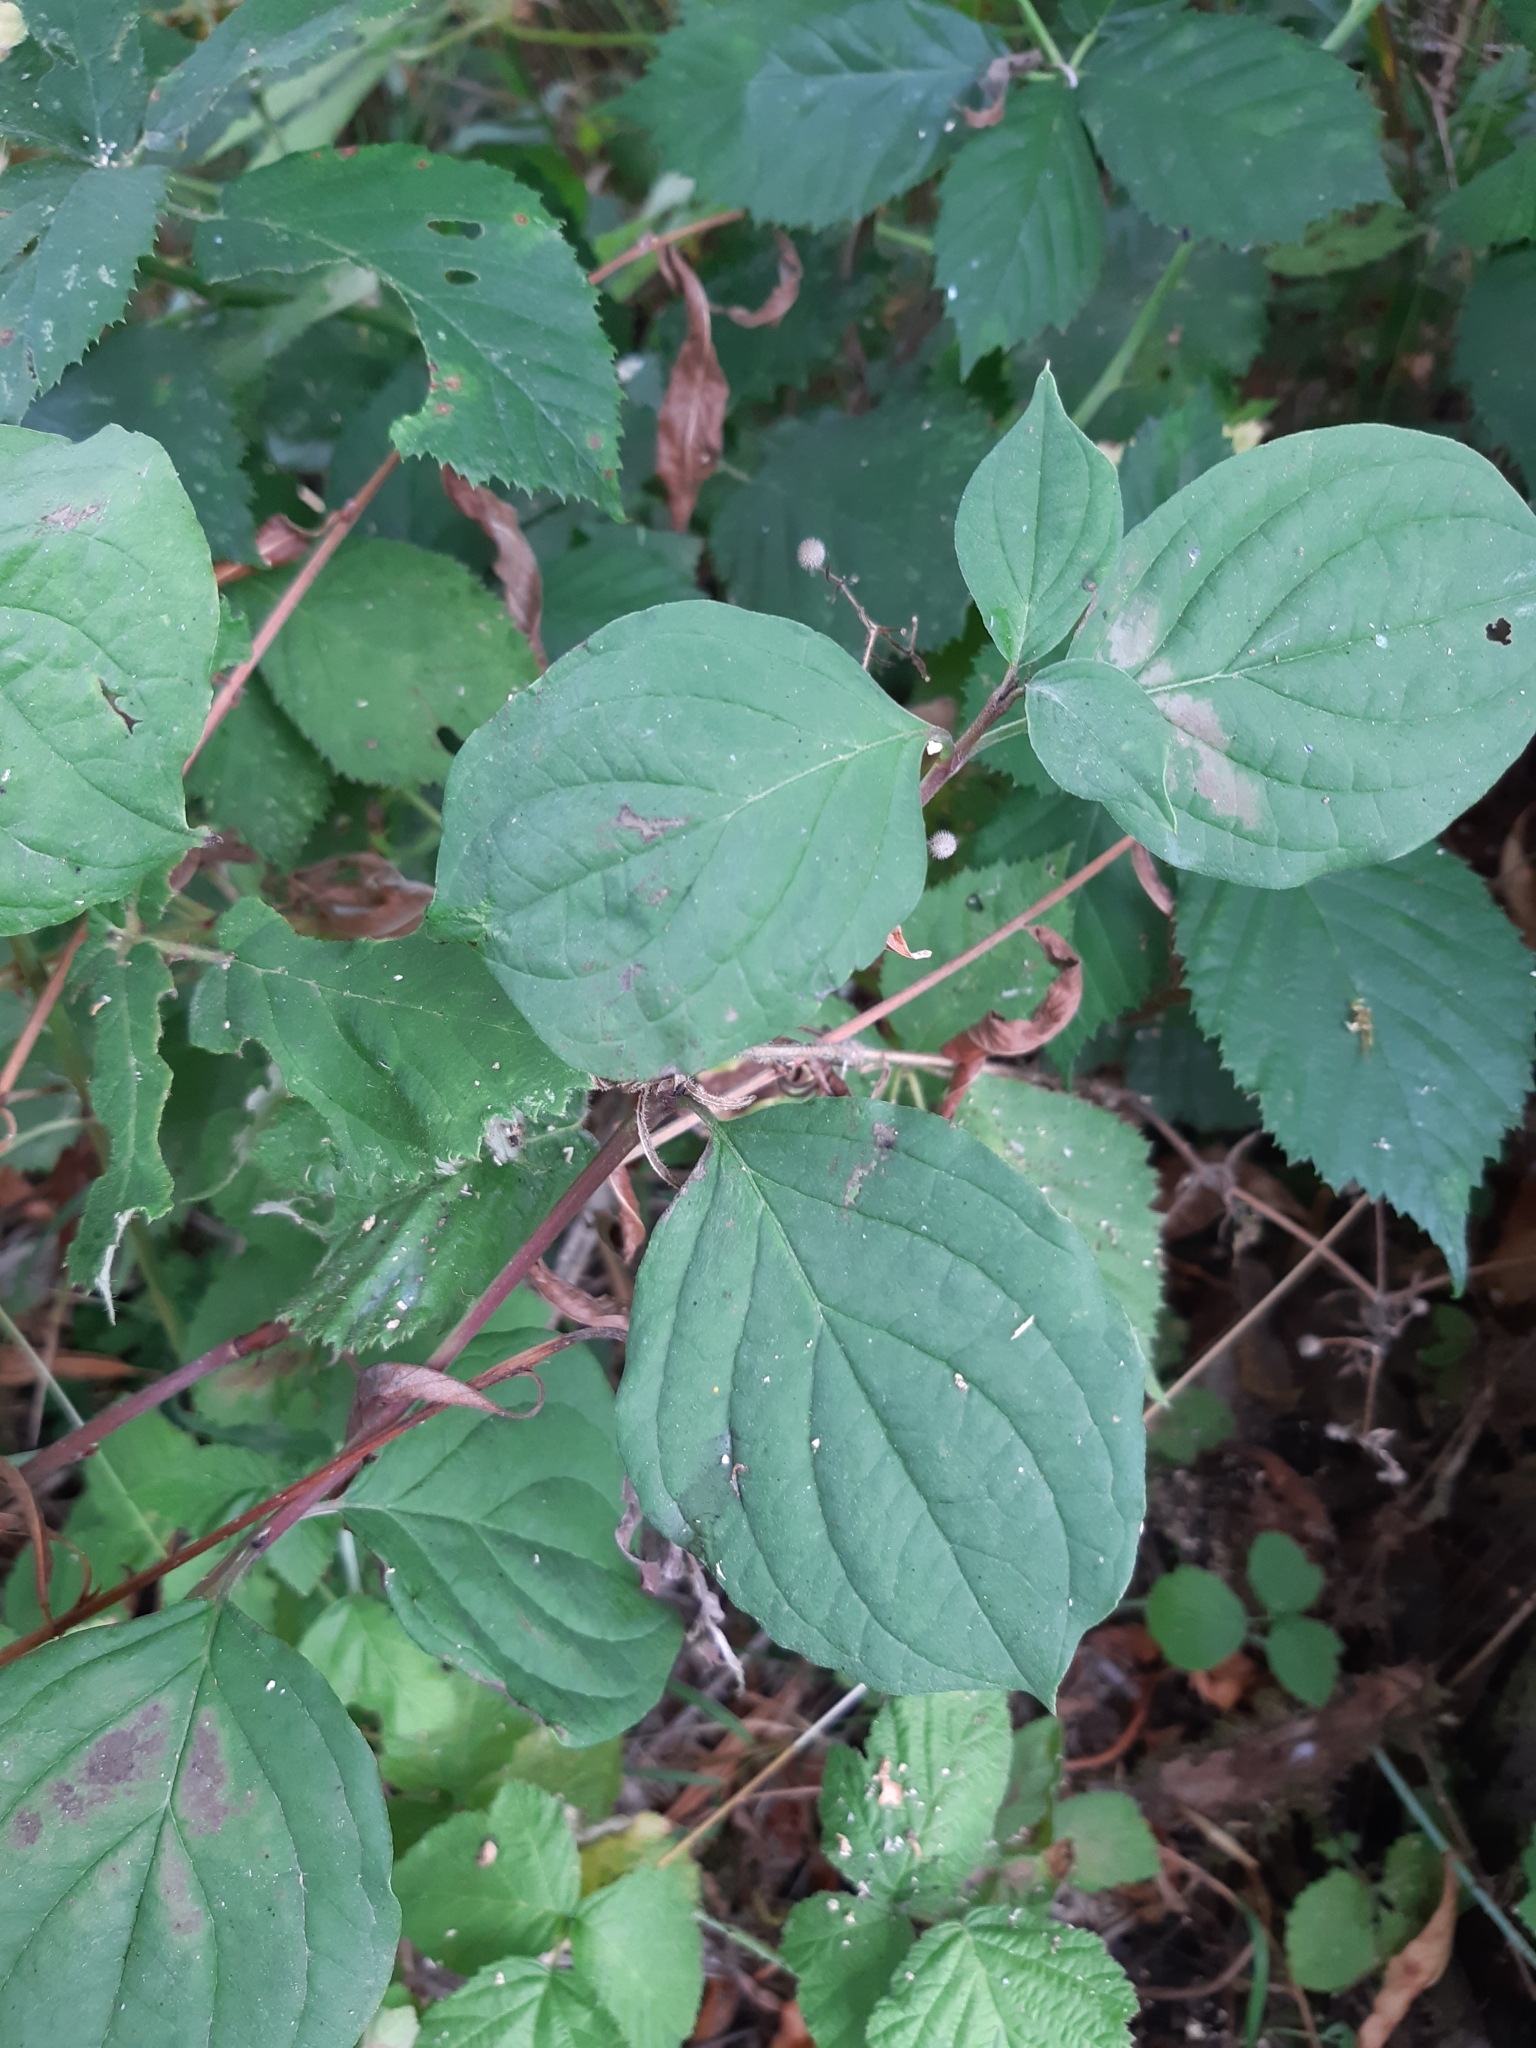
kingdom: Plantae
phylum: Tracheophyta
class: Magnoliopsida
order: Cornales
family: Cornaceae
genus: Cornus
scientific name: Cornus sanguinea
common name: Dogwood
